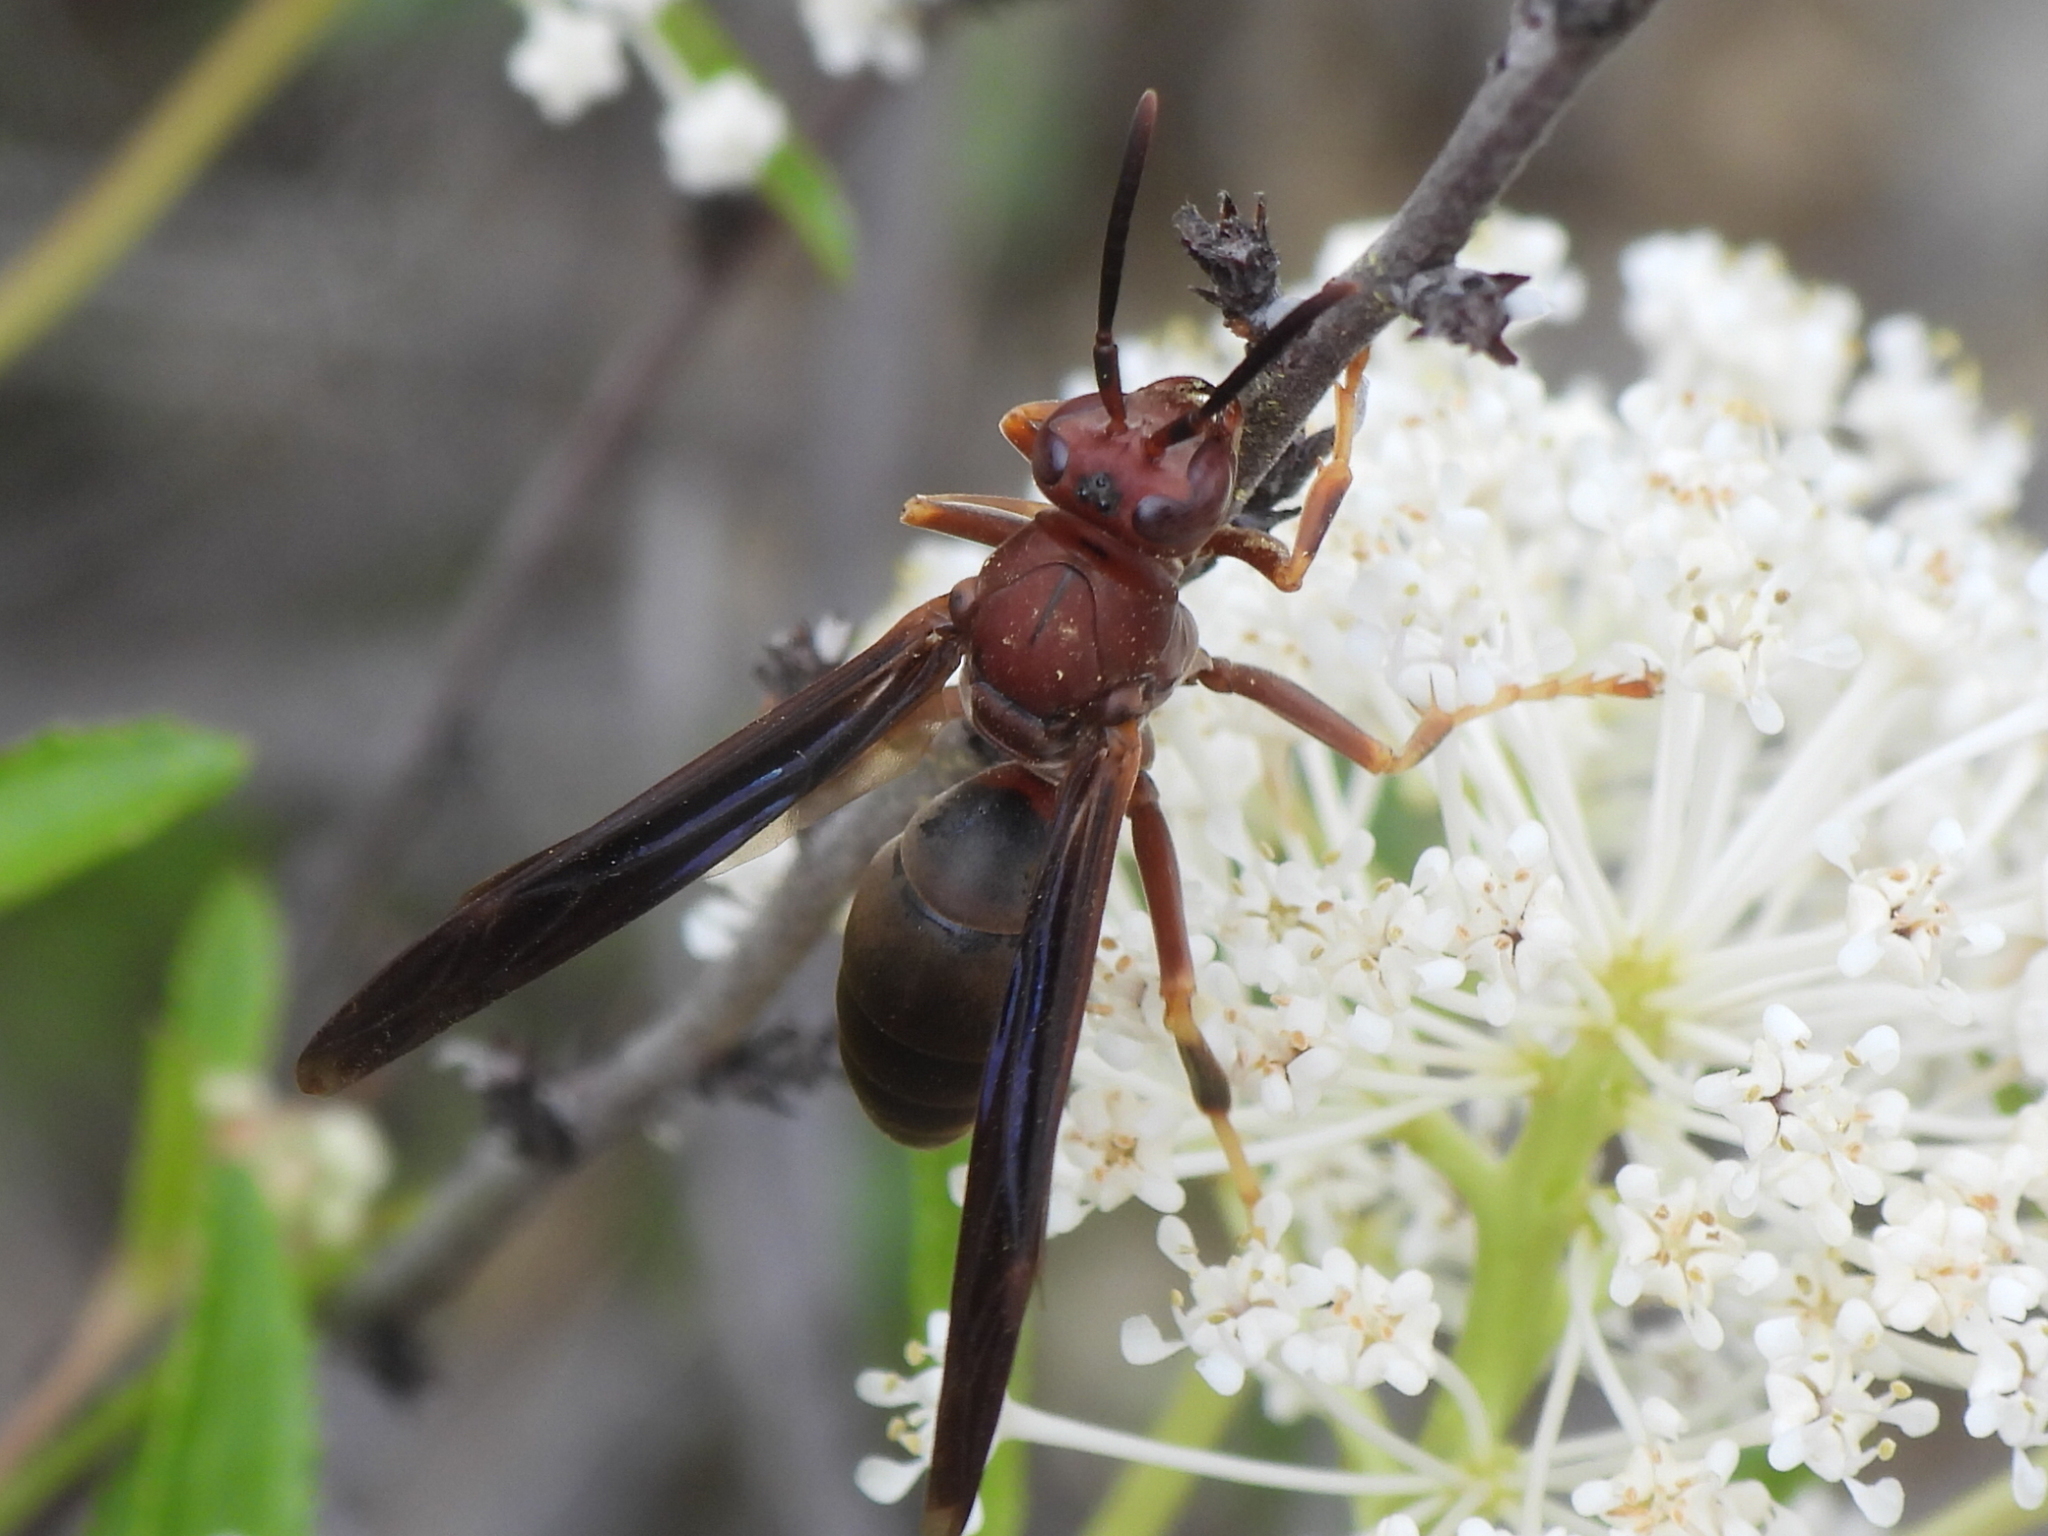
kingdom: Animalia
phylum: Arthropoda
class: Insecta
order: Hymenoptera
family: Eumenidae
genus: Polistes
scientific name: Polistes metricus
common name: Metric paper wasp
